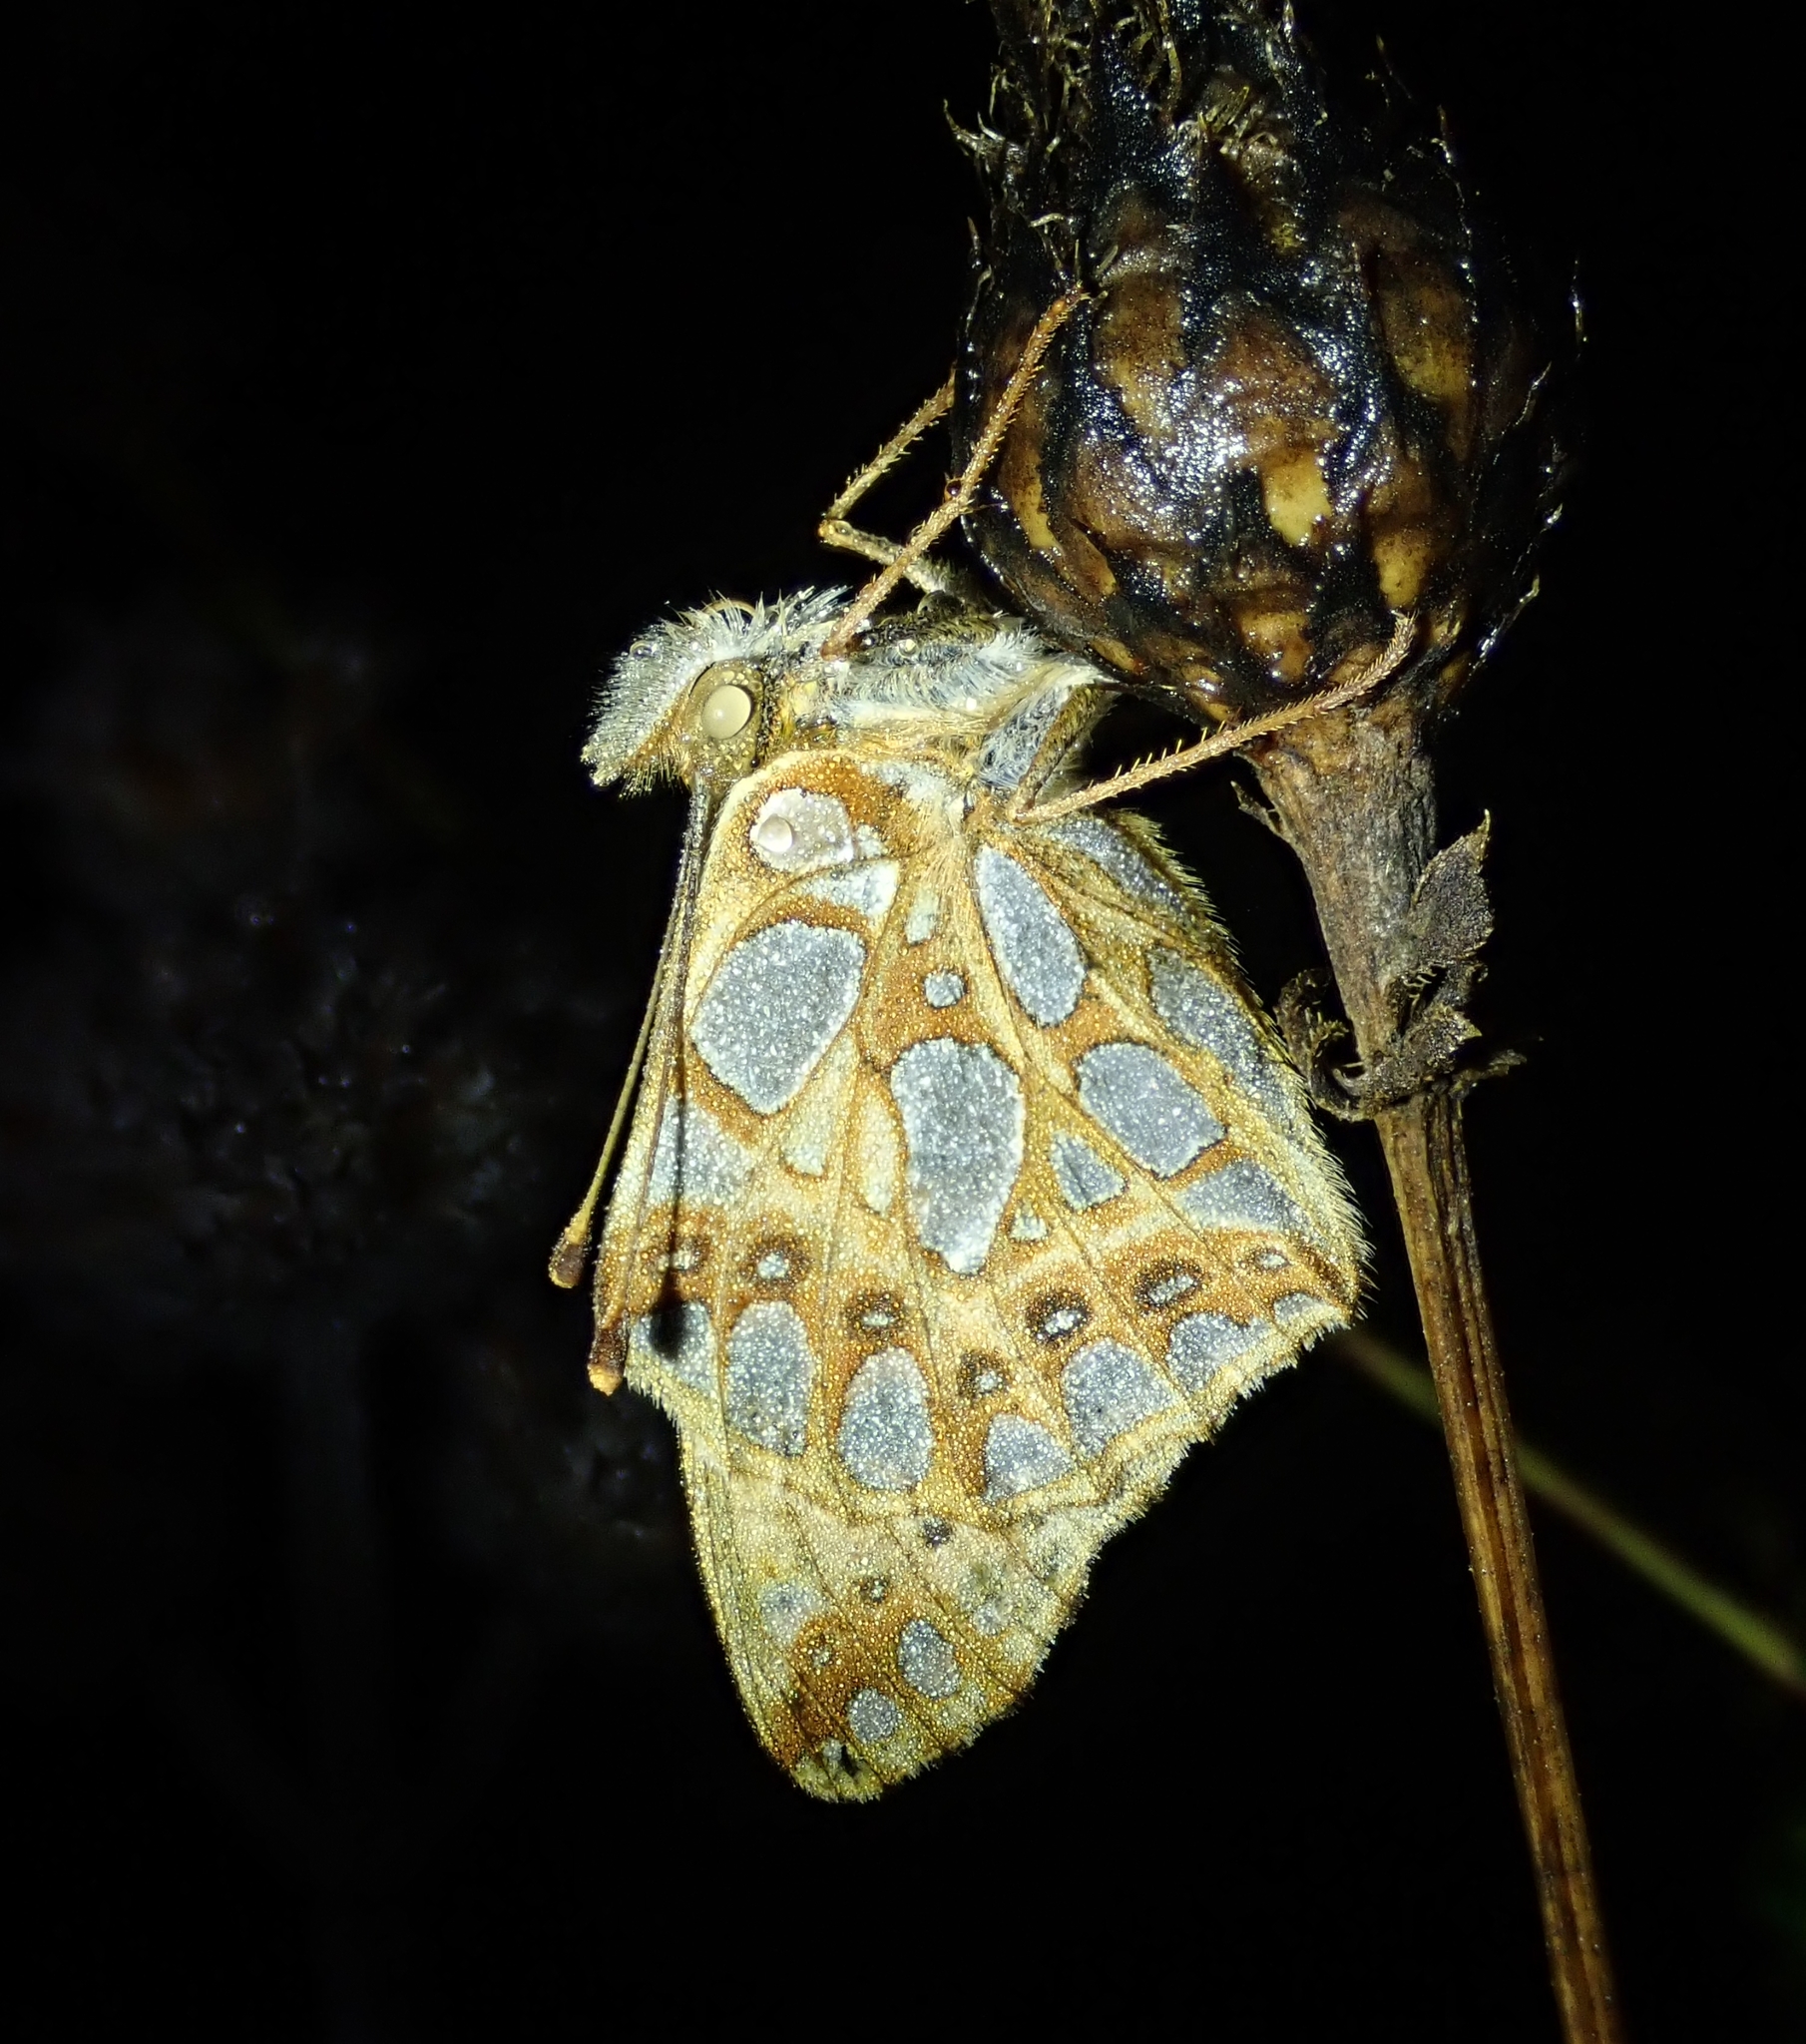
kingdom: Animalia
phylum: Arthropoda
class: Insecta
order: Lepidoptera
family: Nymphalidae
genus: Issoria
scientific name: Issoria lathonia
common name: Queen of spain fritillary
